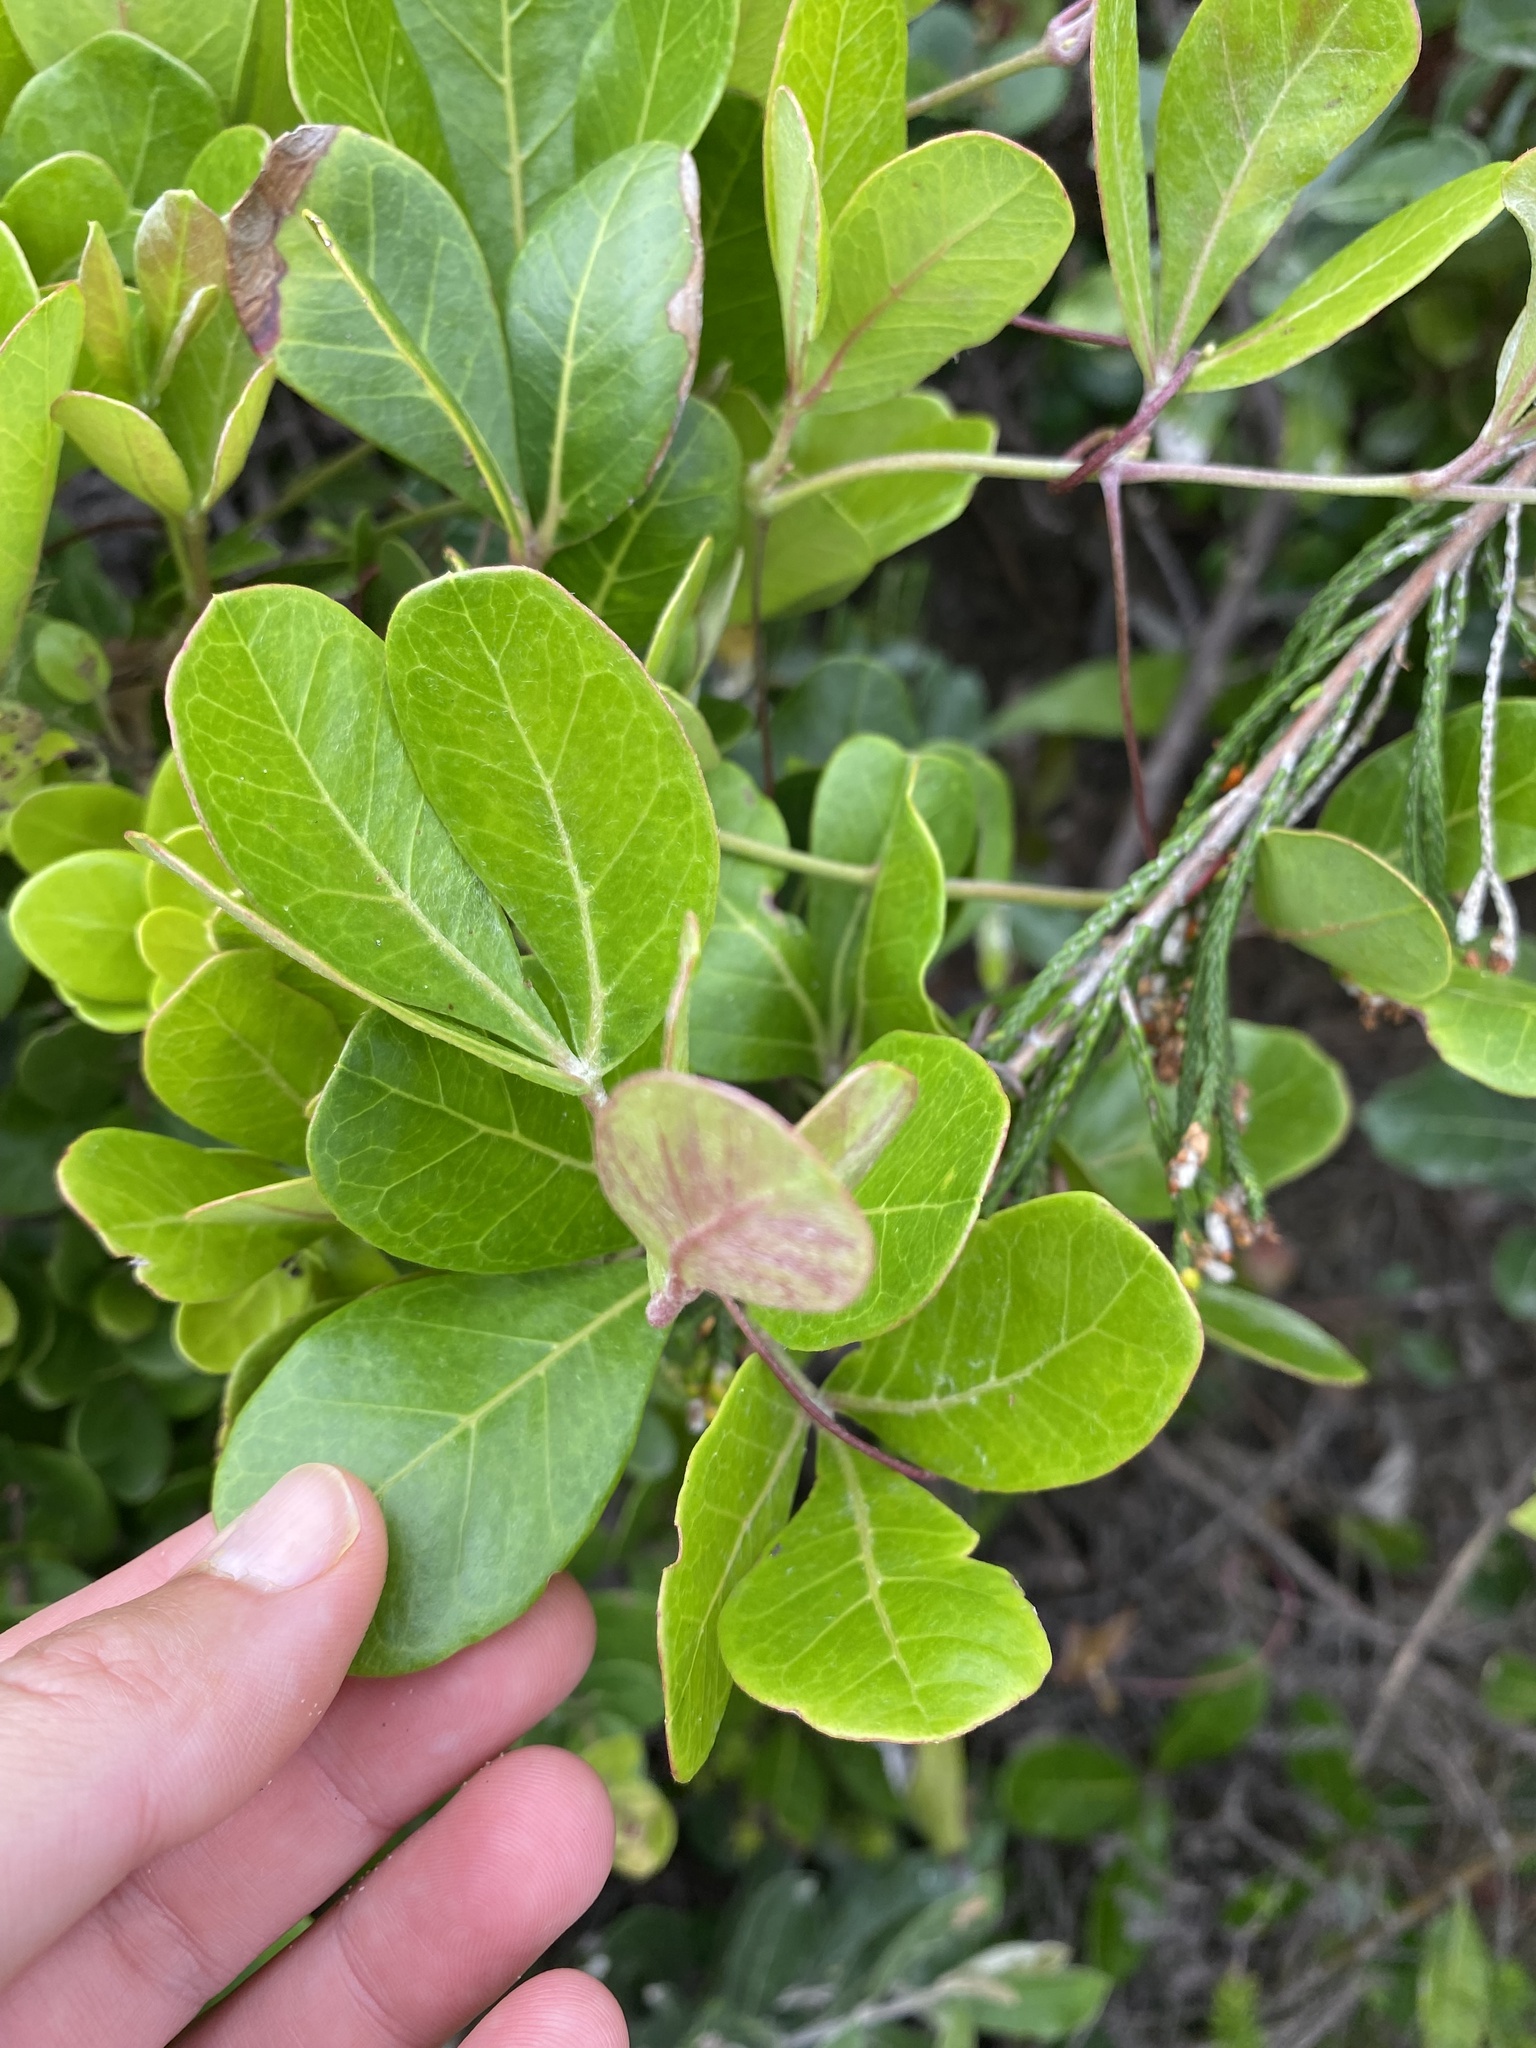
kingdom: Plantae
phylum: Tracheophyta
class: Magnoliopsida
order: Vitales
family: Vitaceae
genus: Rhoicissus
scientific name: Rhoicissus digitata
